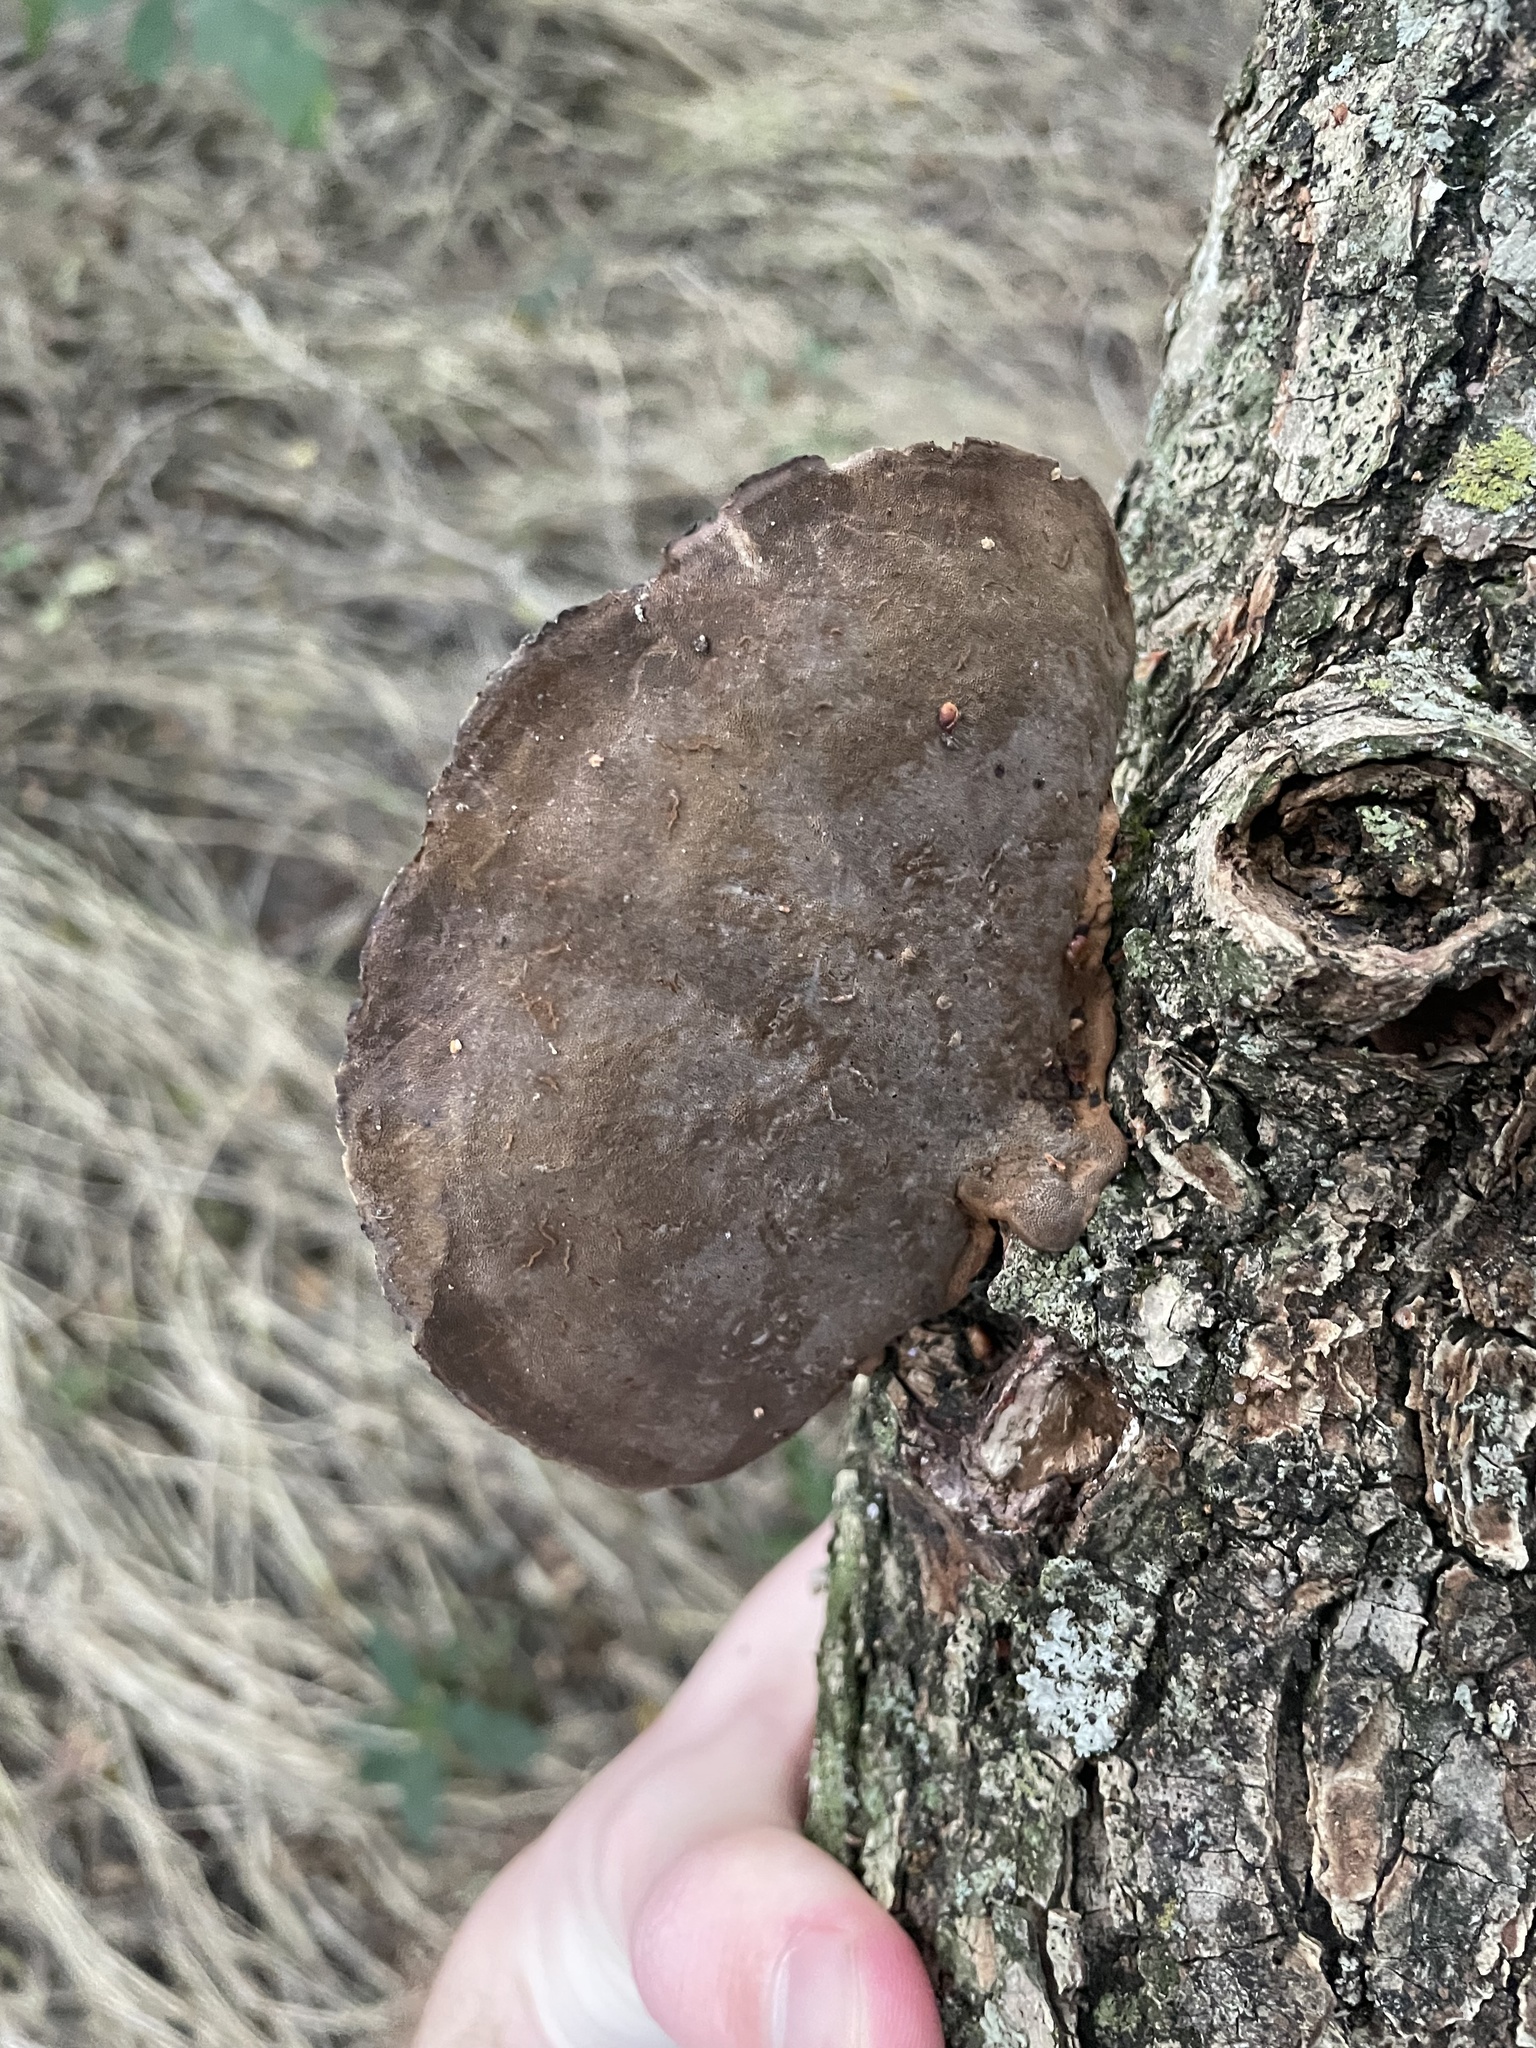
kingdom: Fungi
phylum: Basidiomycota
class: Agaricomycetes
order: Polyporales
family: Cerrenaceae
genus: Cerrena
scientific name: Cerrena hydnoides
